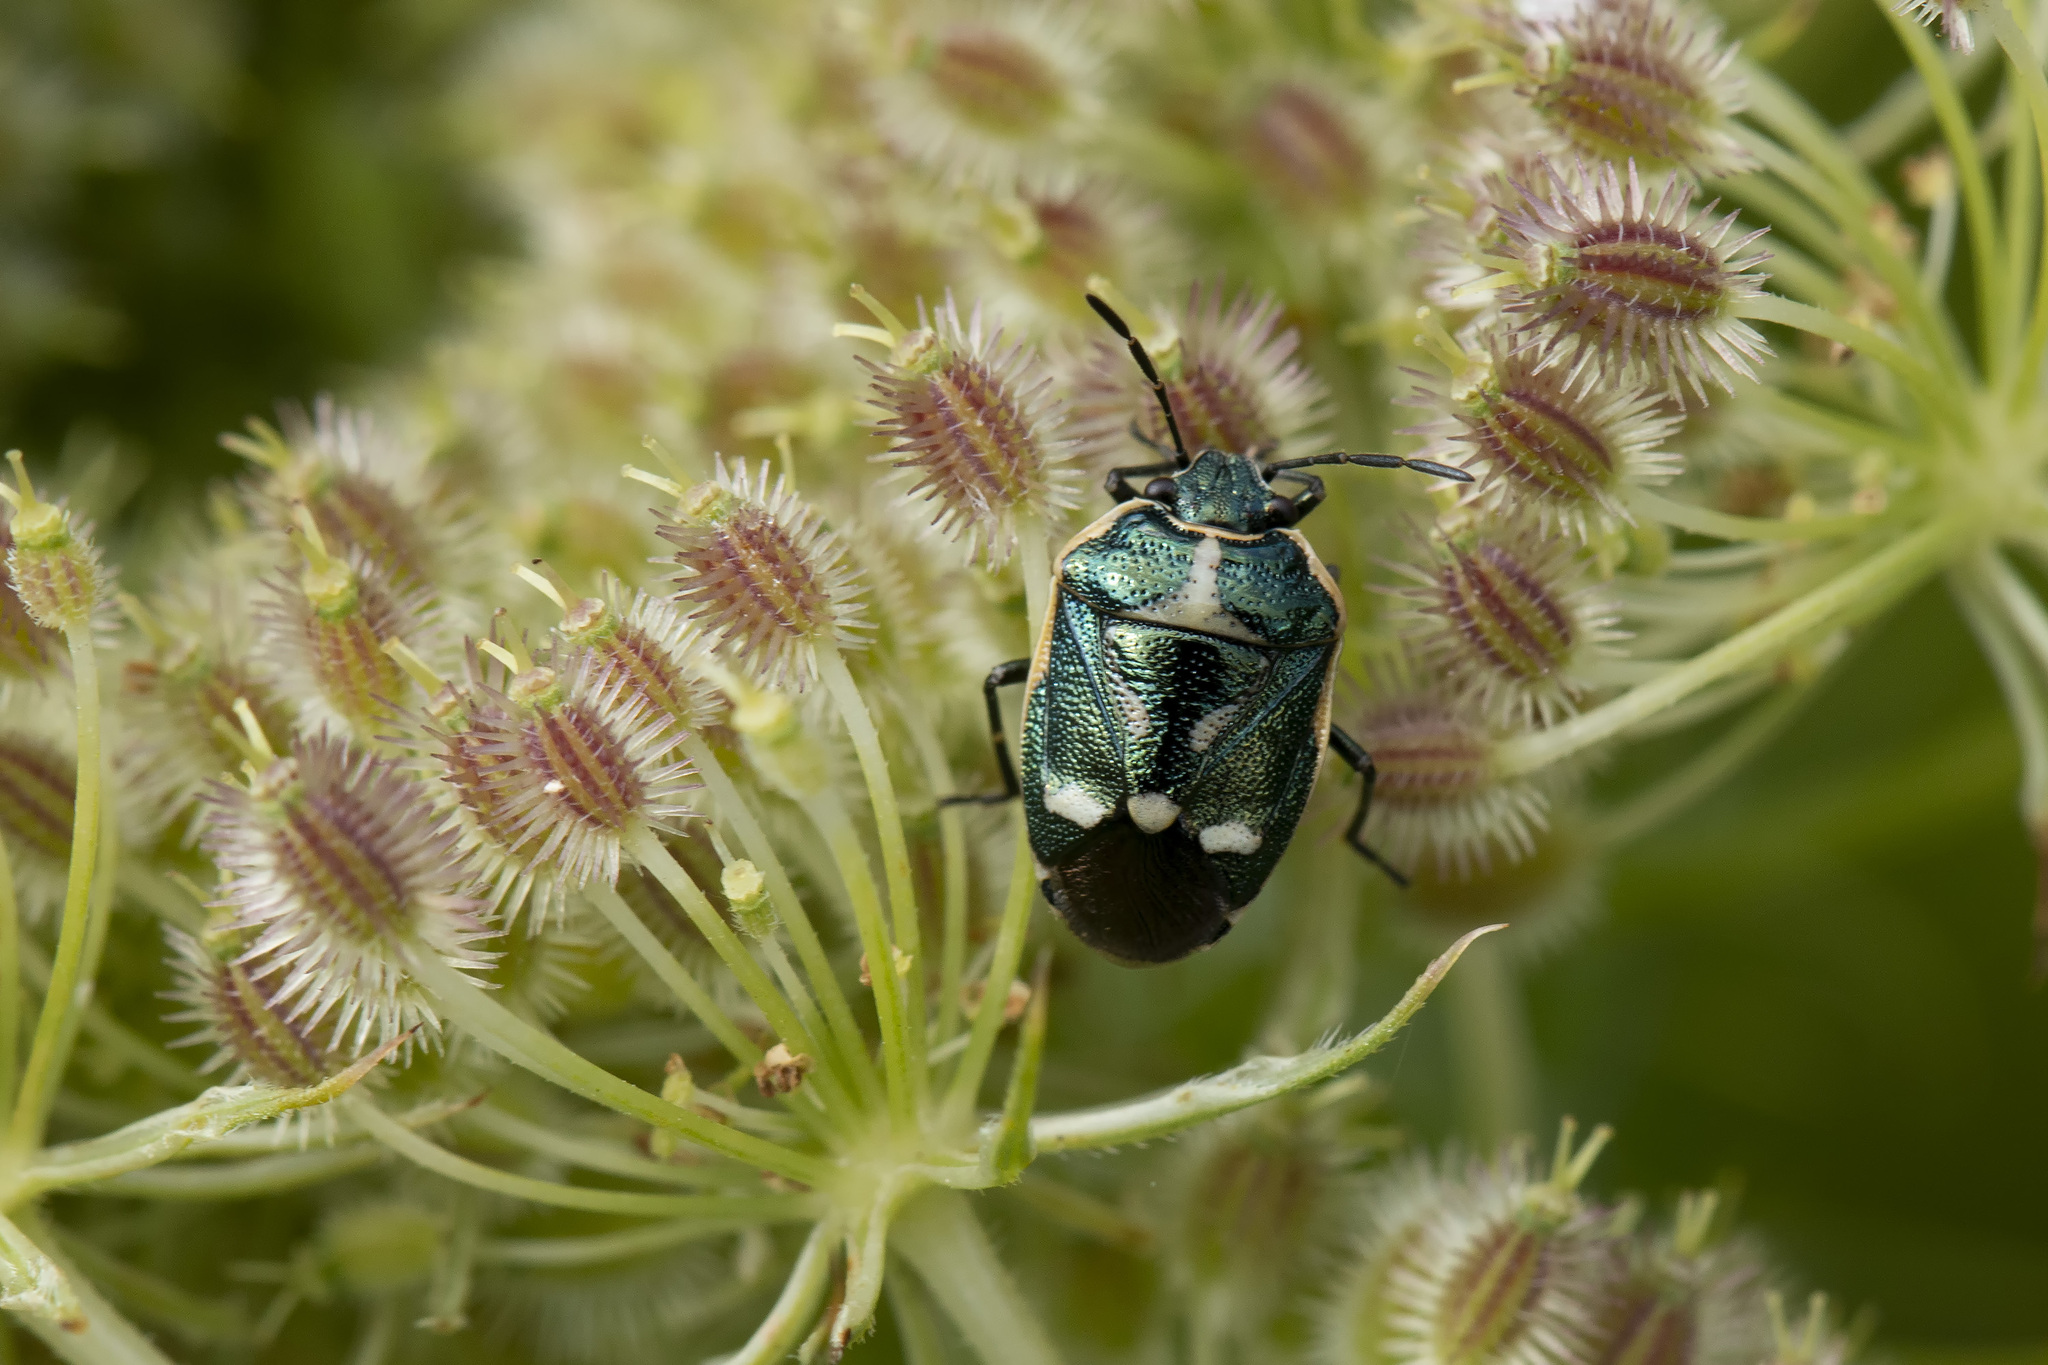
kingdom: Animalia
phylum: Arthropoda
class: Insecta
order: Hemiptera
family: Pentatomidae
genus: Eurydema
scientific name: Eurydema oleracea
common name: Cabbage bug
